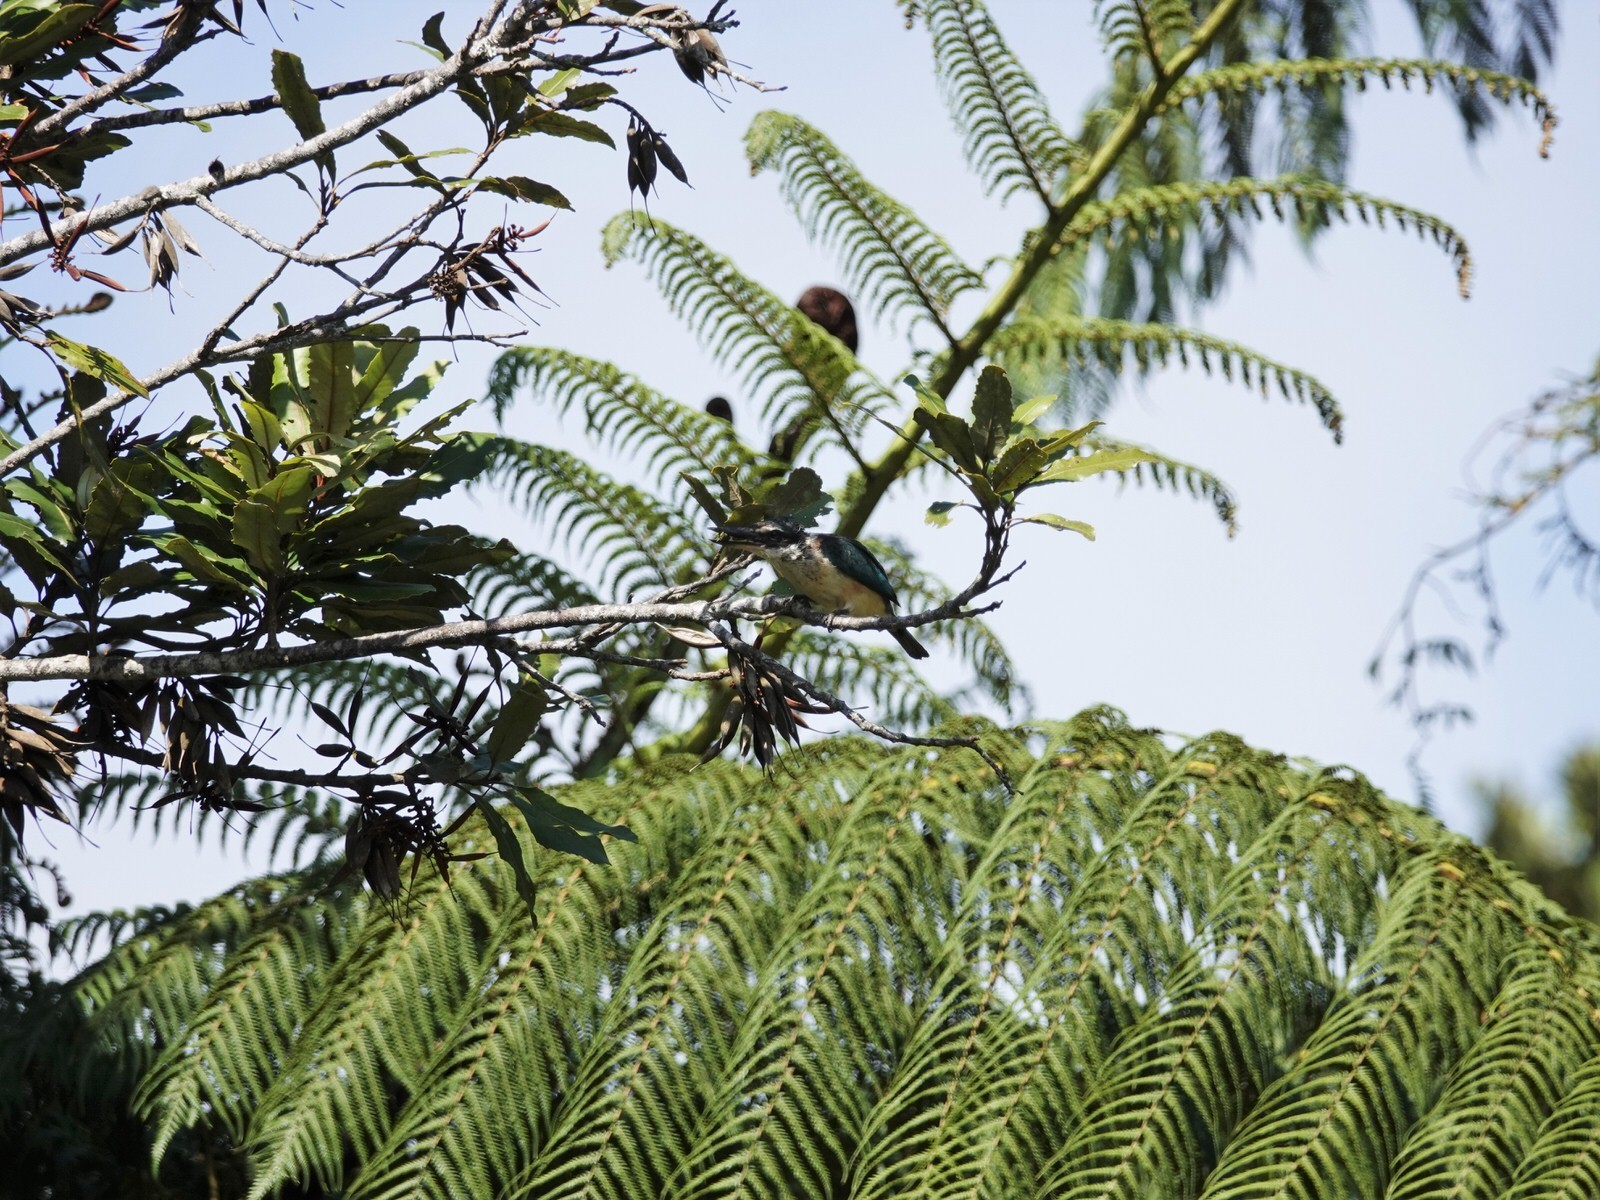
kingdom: Animalia
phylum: Chordata
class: Aves
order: Coraciiformes
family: Alcedinidae
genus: Todiramphus
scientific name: Todiramphus sanctus
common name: Sacred kingfisher
